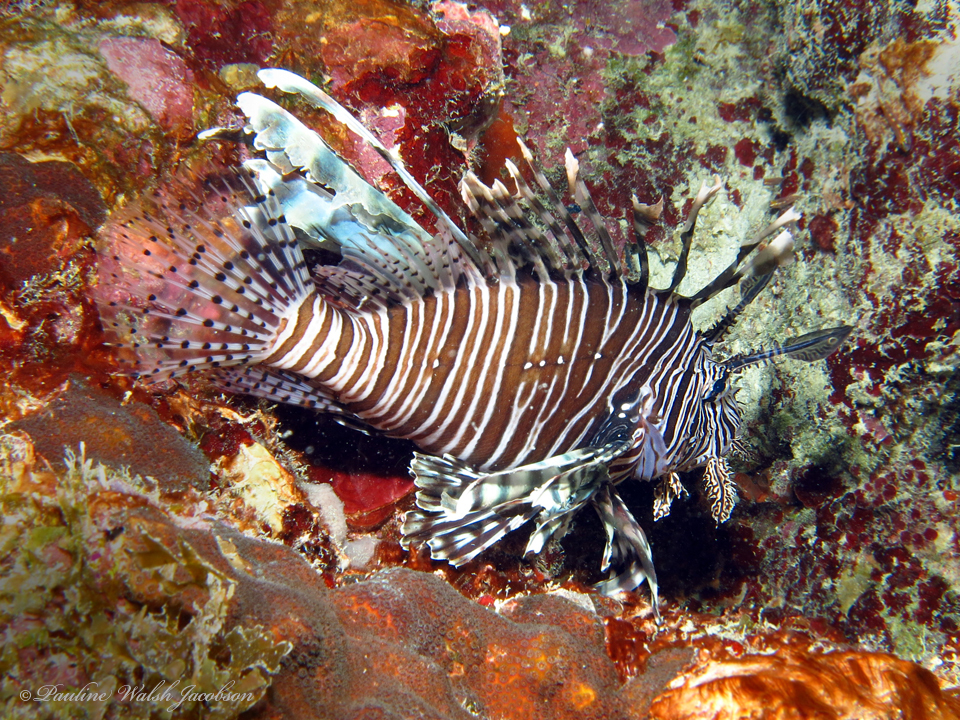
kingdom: Animalia
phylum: Chordata
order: Scorpaeniformes
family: Scorpaenidae
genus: Pterois
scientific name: Pterois volitans
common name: Lionfish
